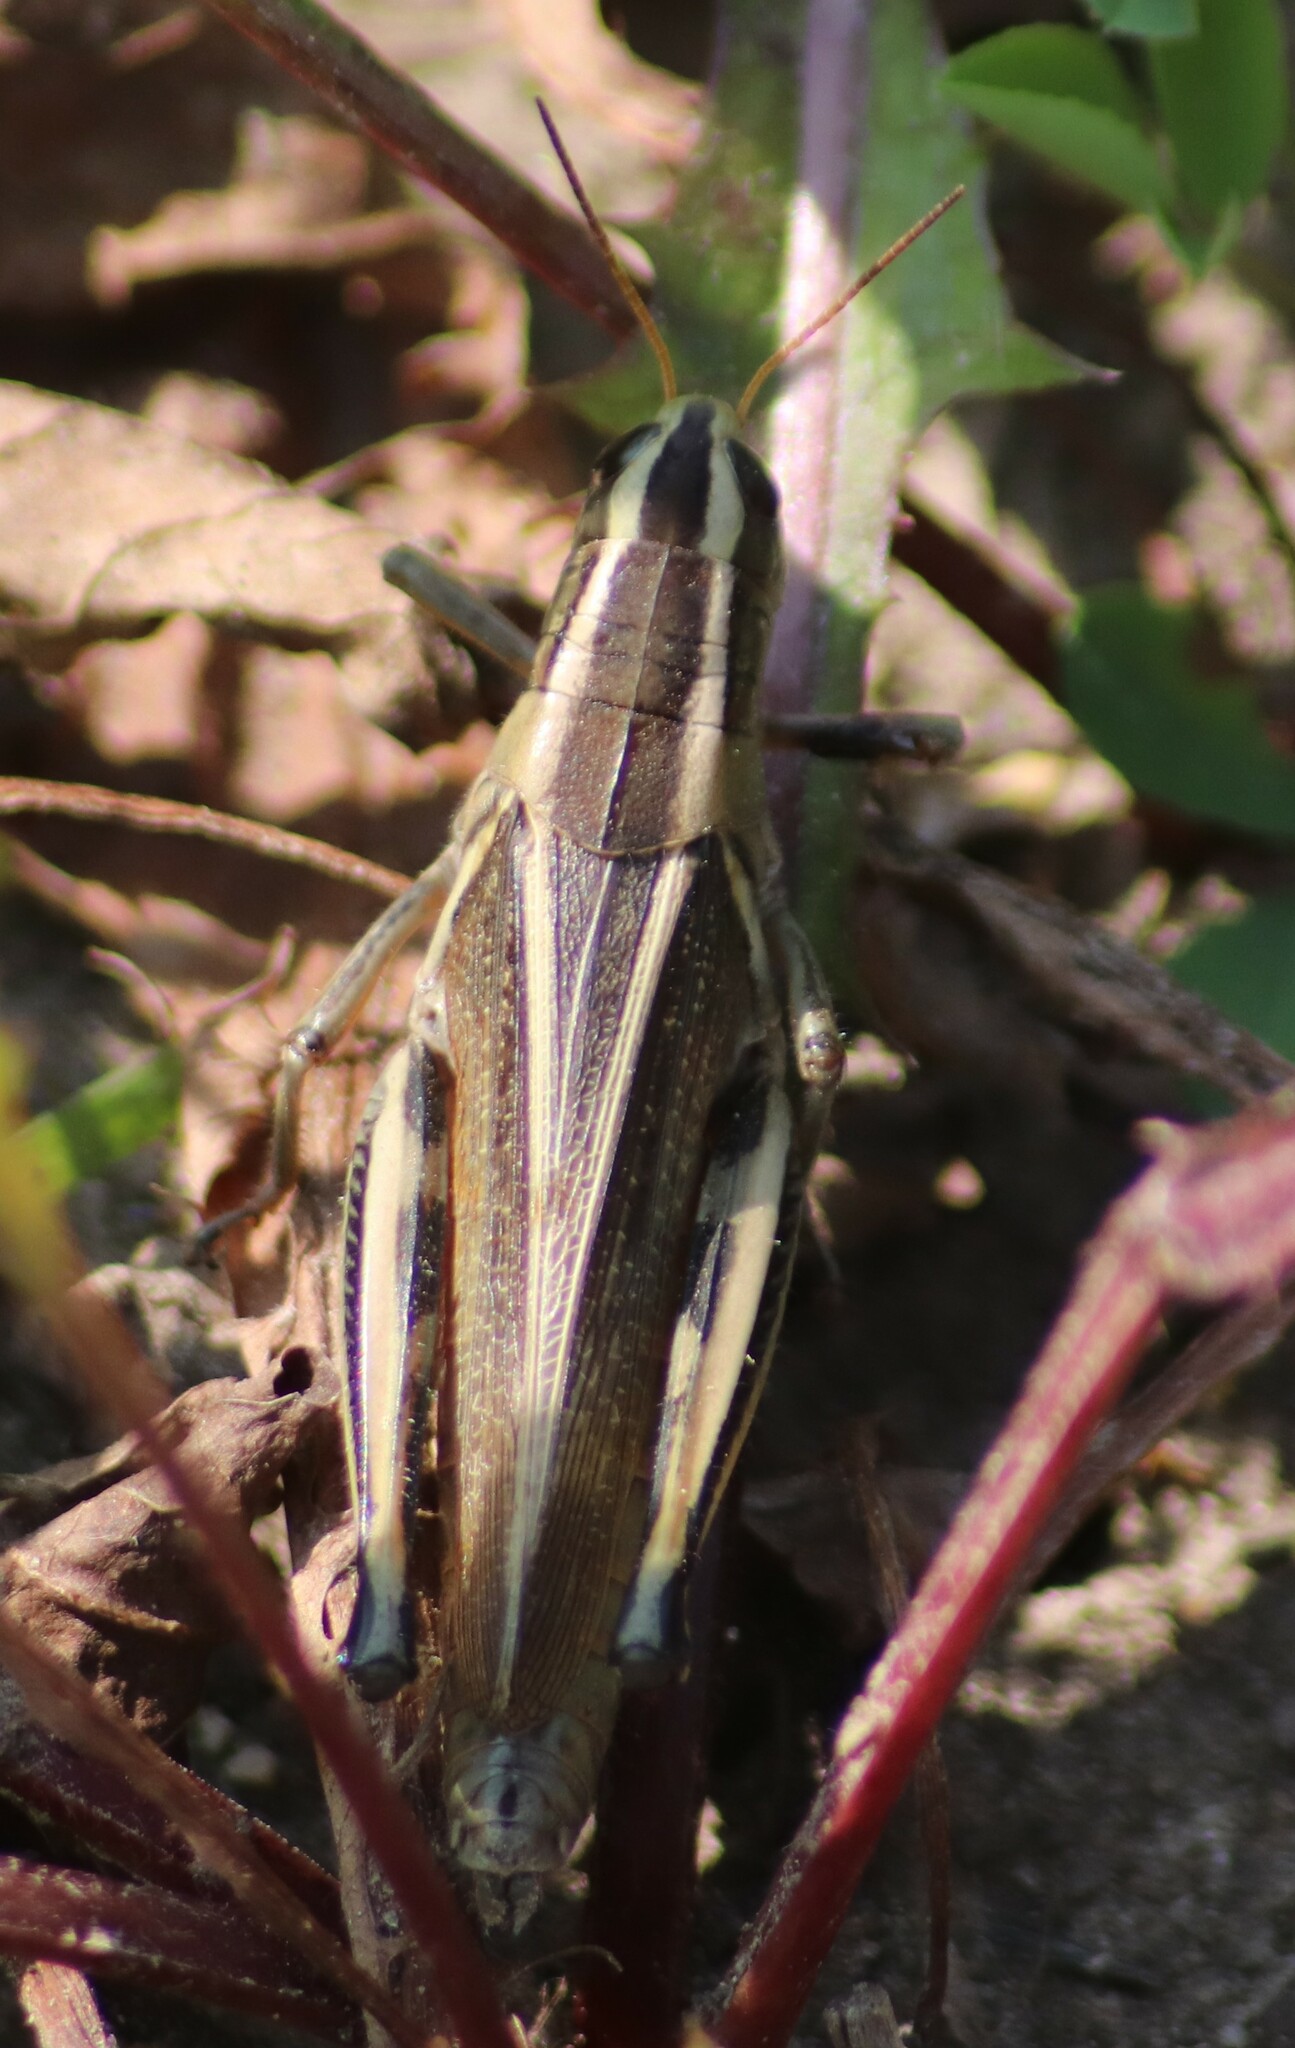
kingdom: Animalia
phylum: Arthropoda
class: Insecta
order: Orthoptera
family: Acrididae
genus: Melanoplus
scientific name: Melanoplus bivittatus
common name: Two-striped grasshopper
